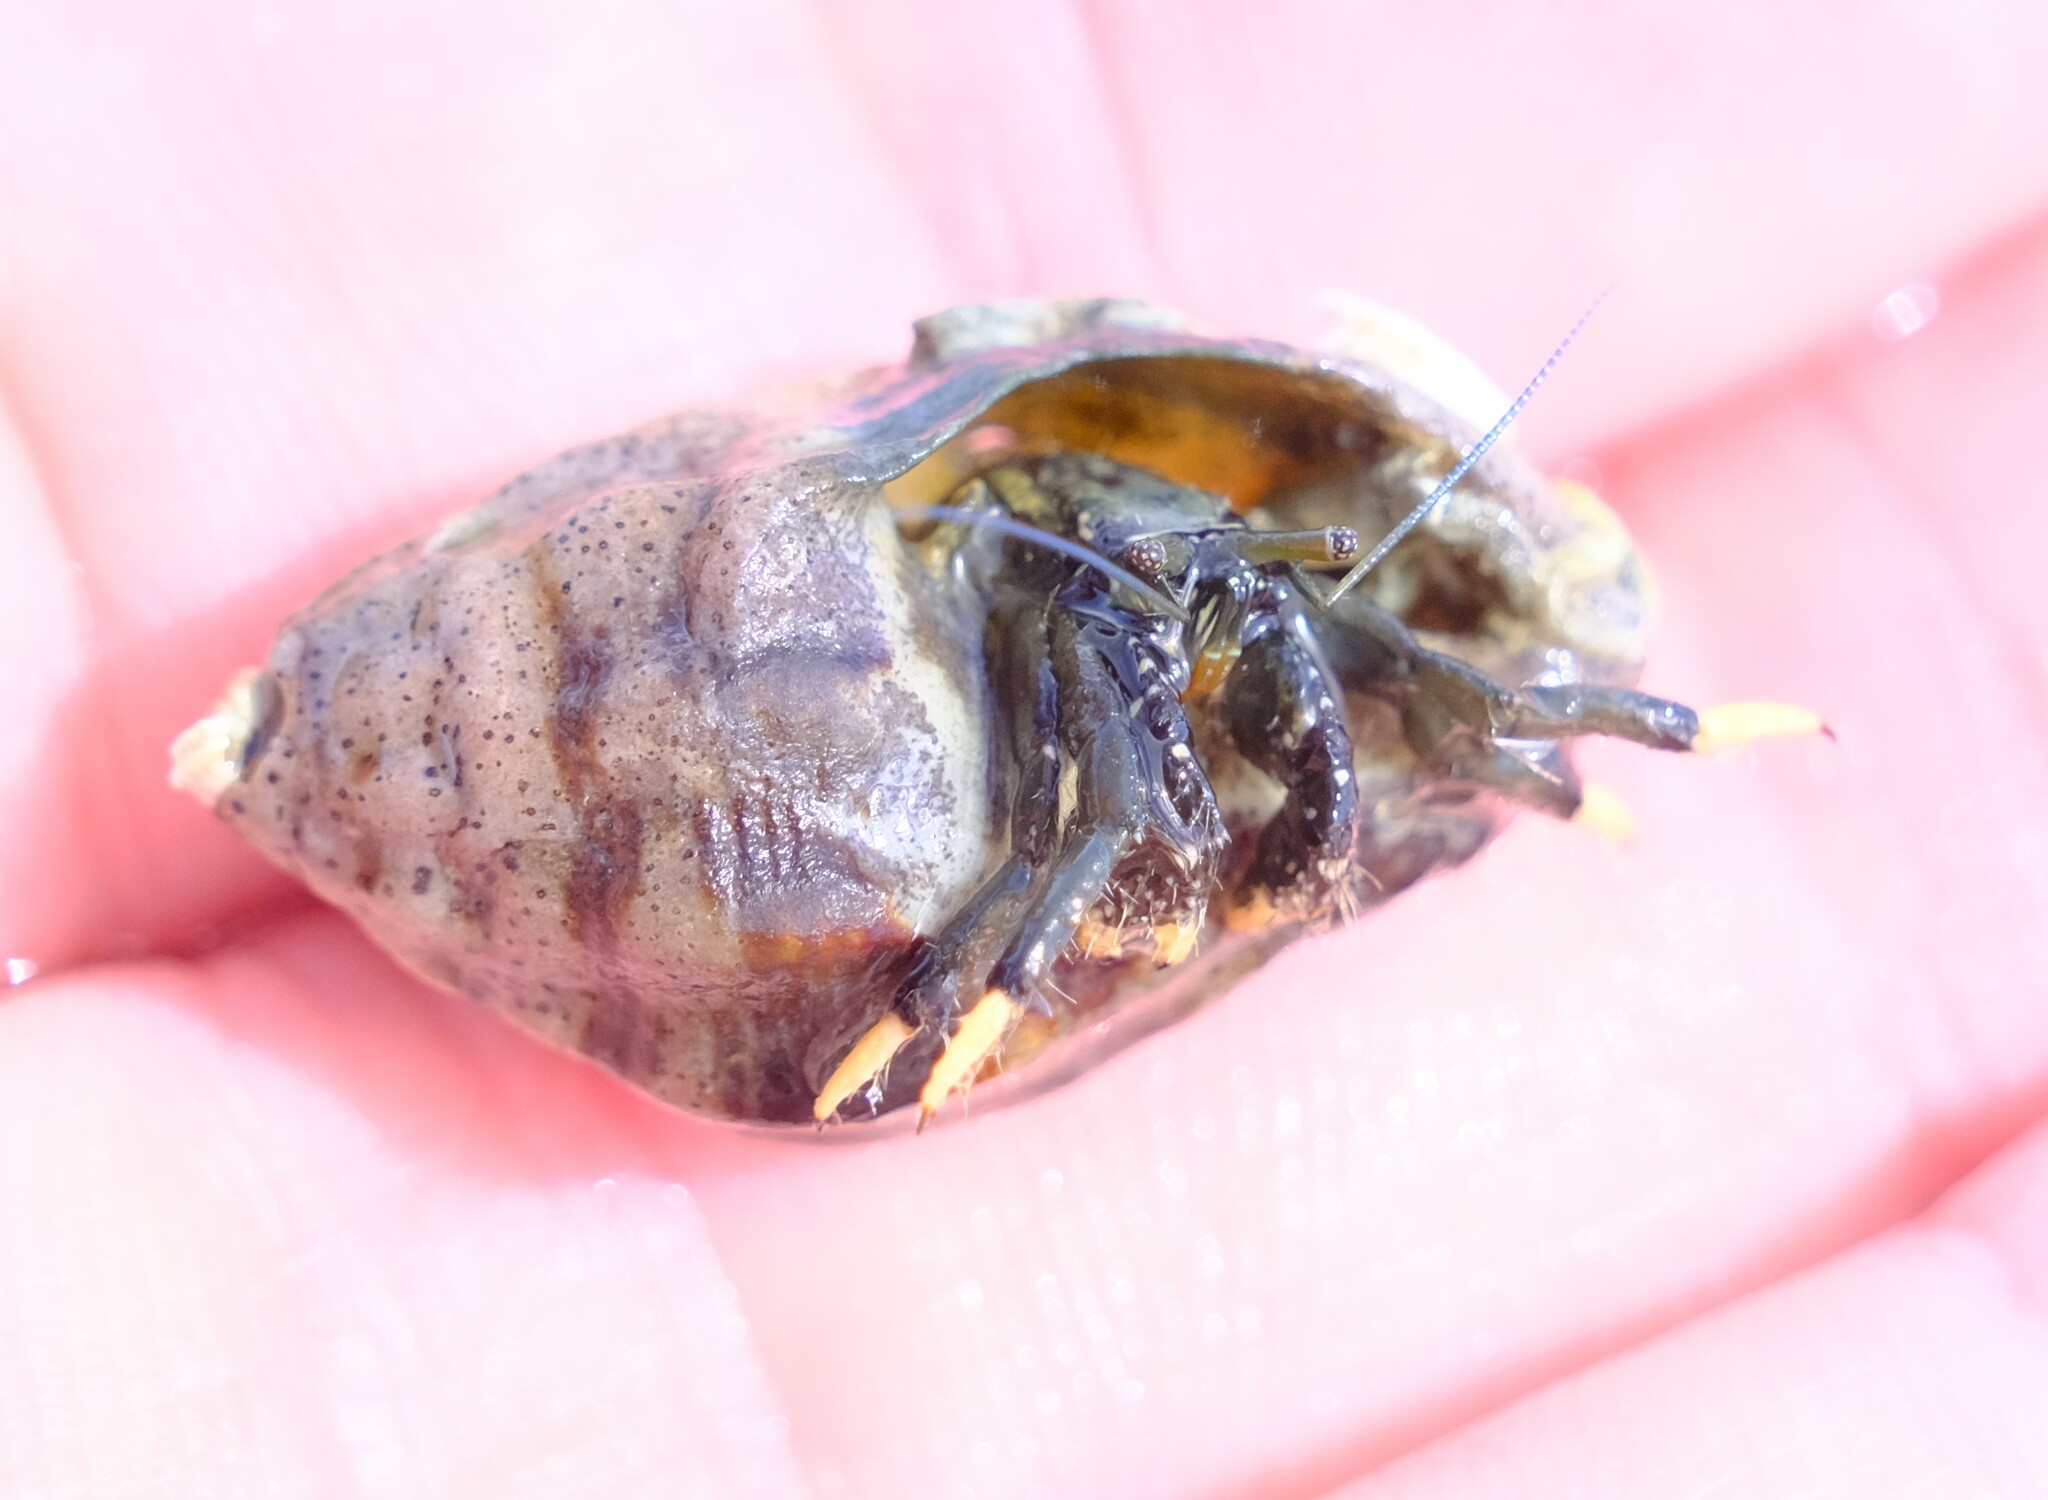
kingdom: Animalia
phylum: Arthropoda
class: Malacostraca
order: Decapoda
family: Diogenidae
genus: Clibanarius
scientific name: Clibanarius virescens
